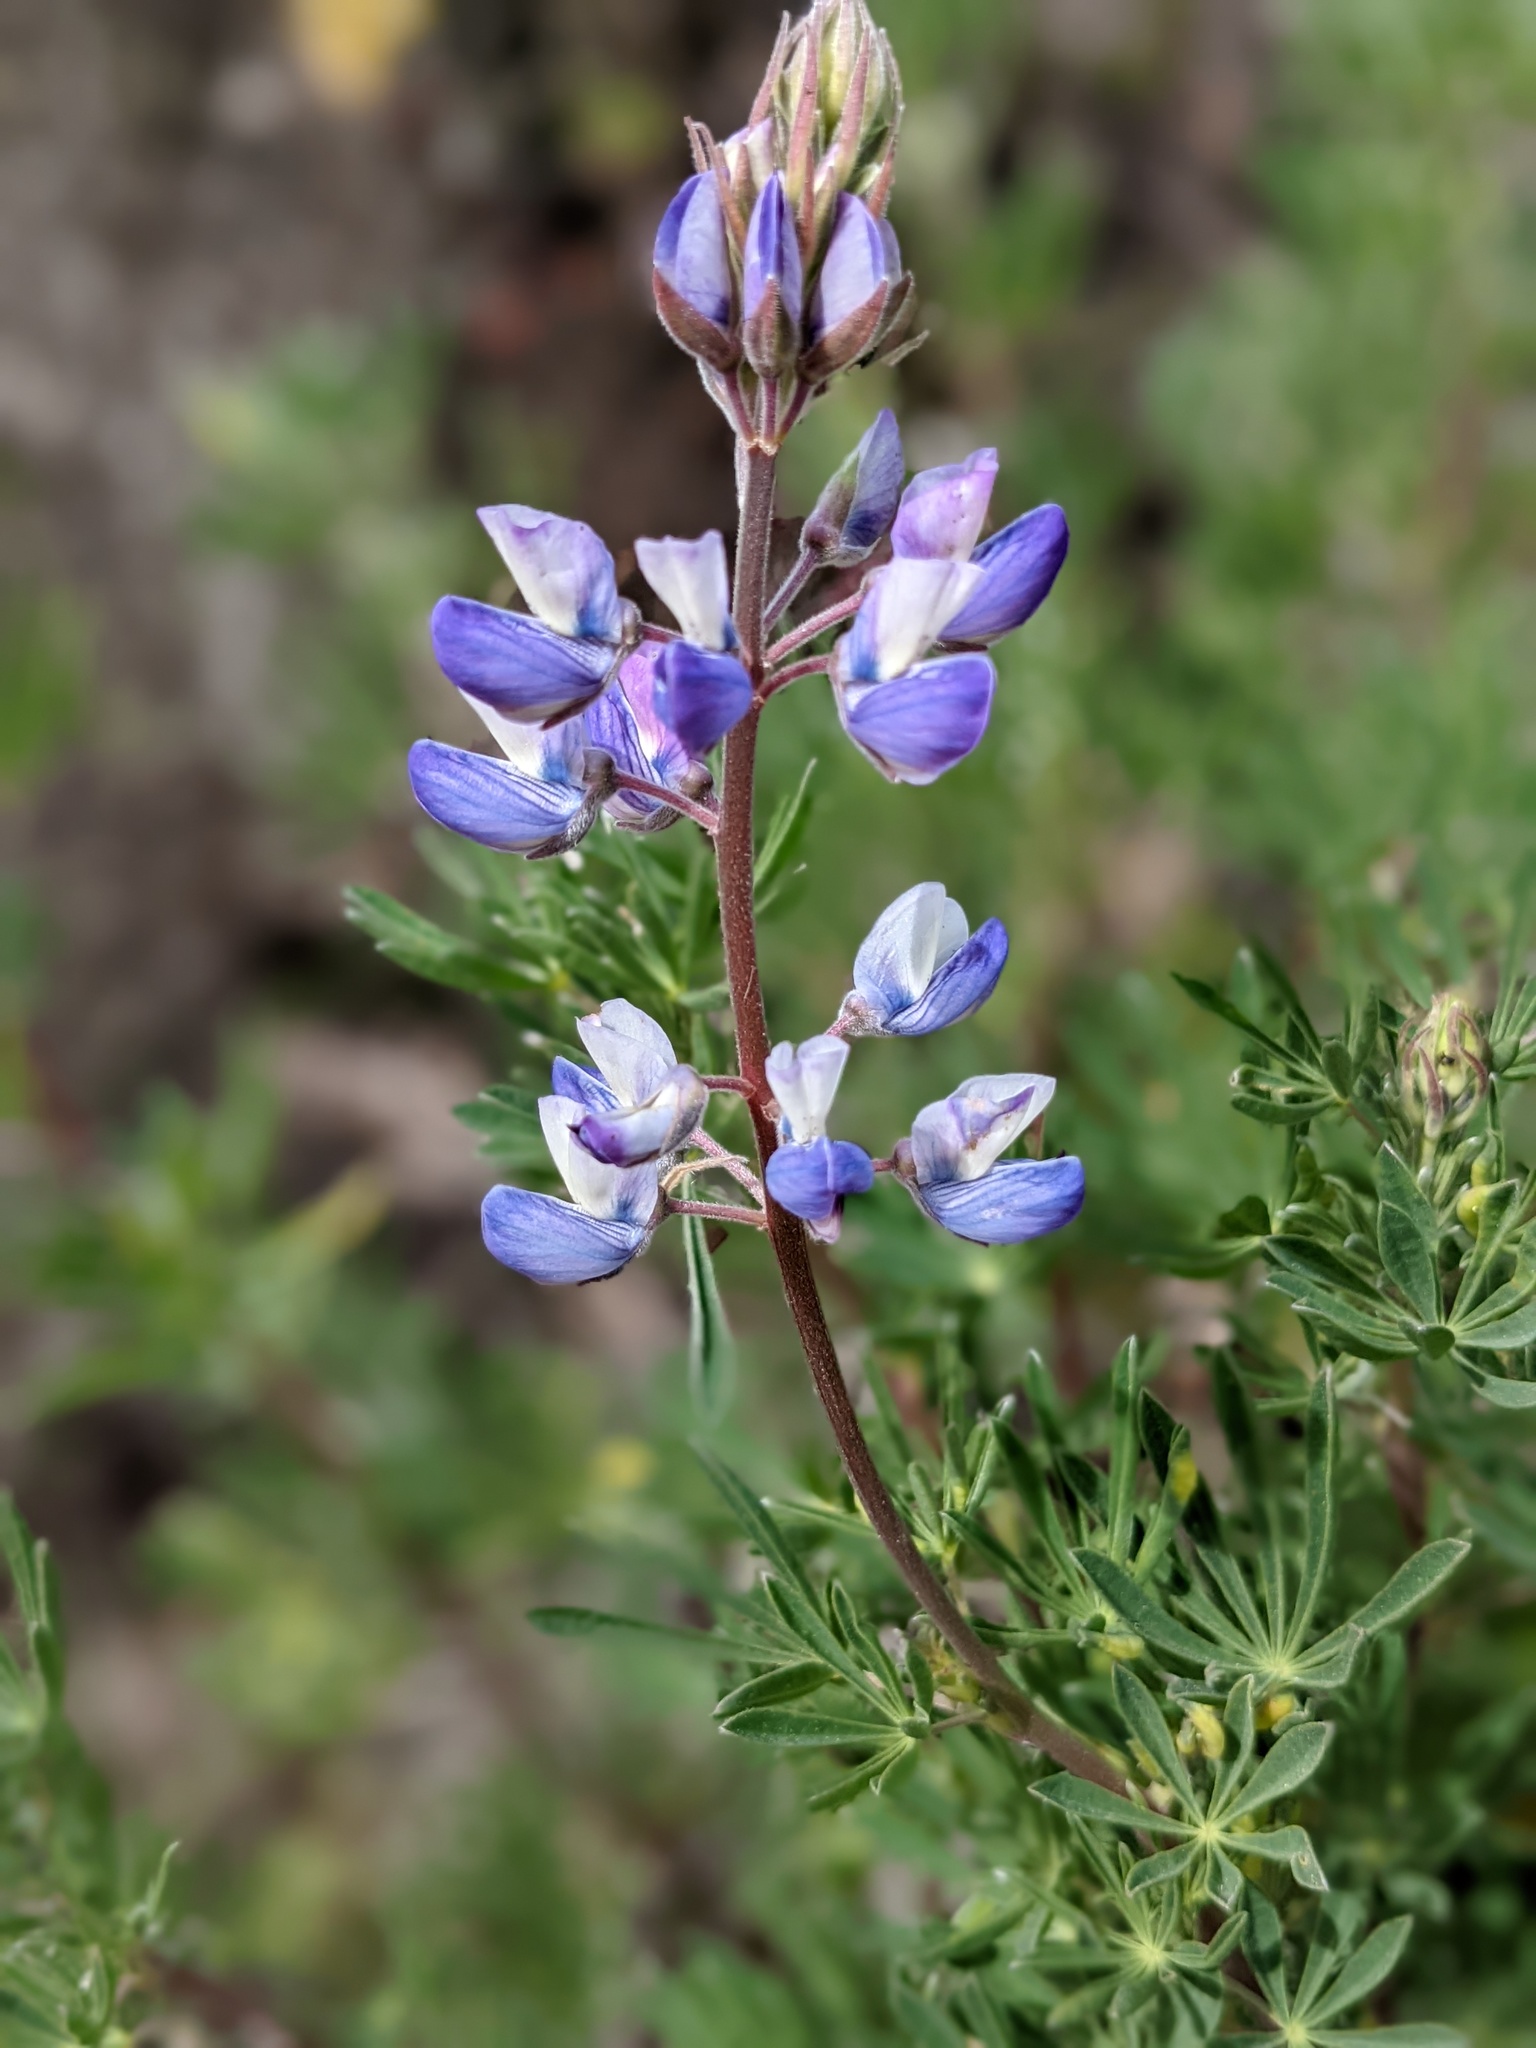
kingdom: Plantae
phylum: Tracheophyta
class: Magnoliopsida
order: Fabales
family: Fabaceae
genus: Lupinus
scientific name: Lupinus arboreus
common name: Yellow bush lupine
